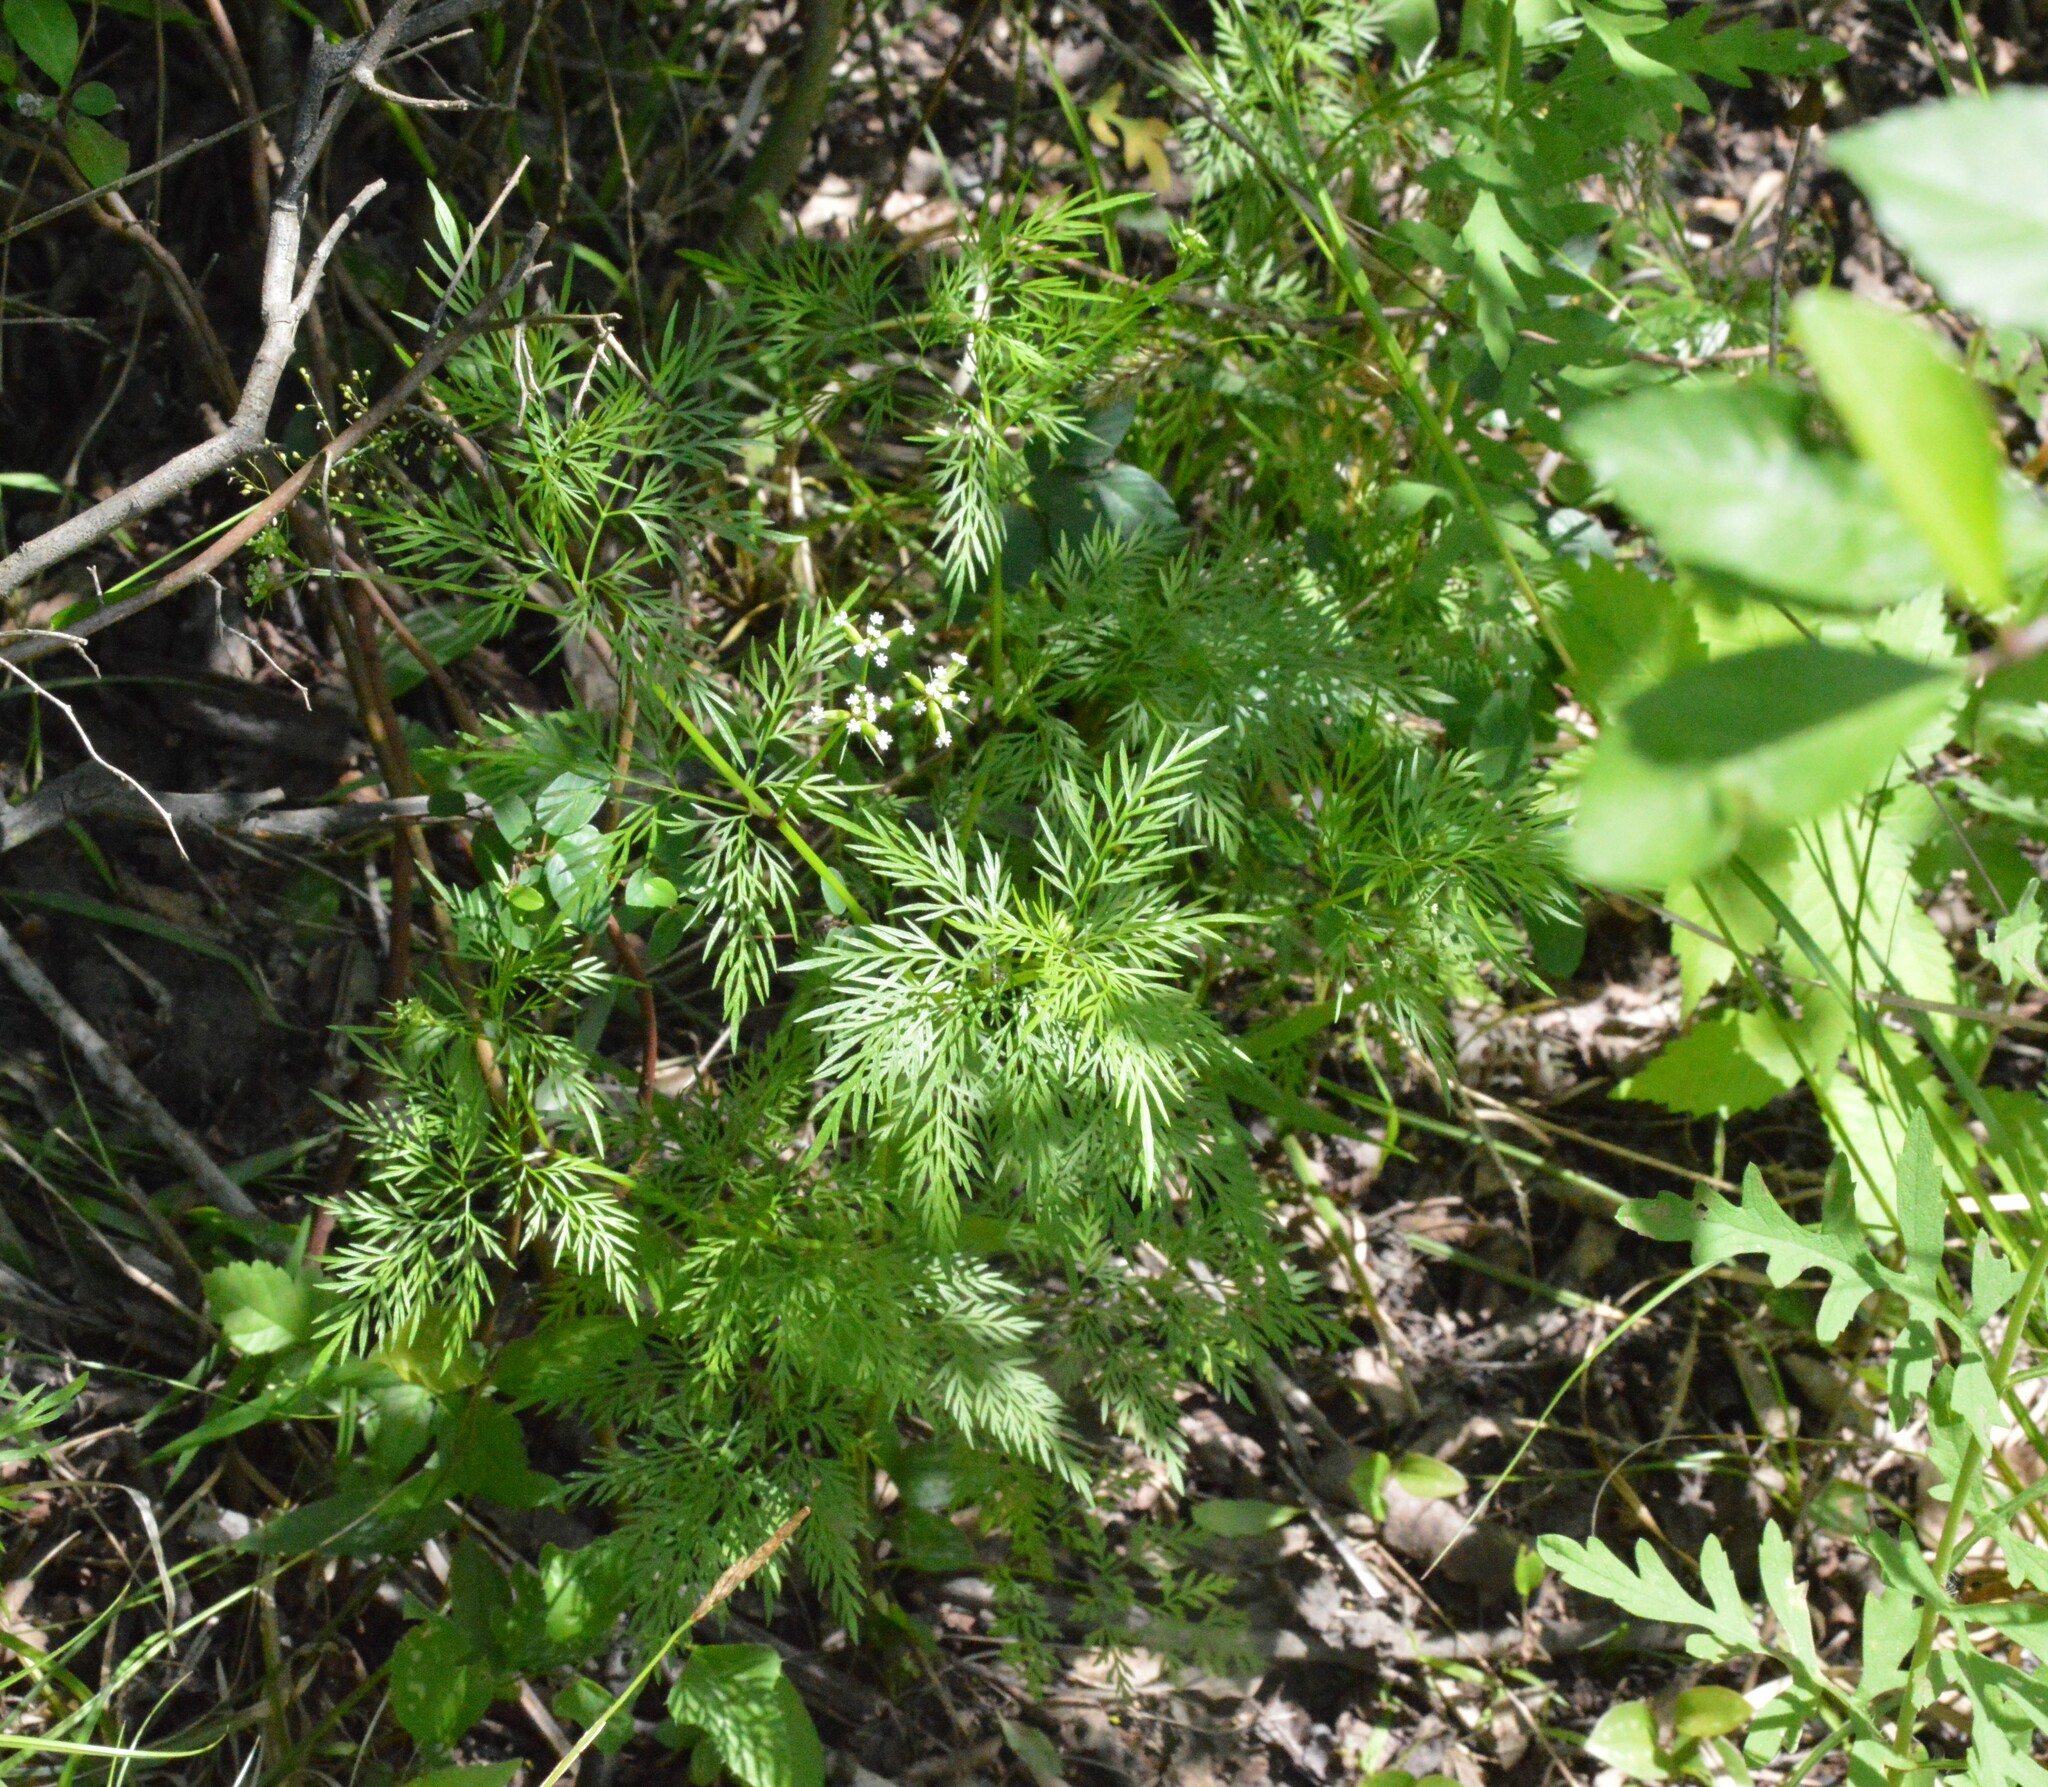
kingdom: Plantae
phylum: Tracheophyta
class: Magnoliopsida
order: Apiales
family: Apiaceae
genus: Trepocarpus
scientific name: Trepocarpus aethusae
